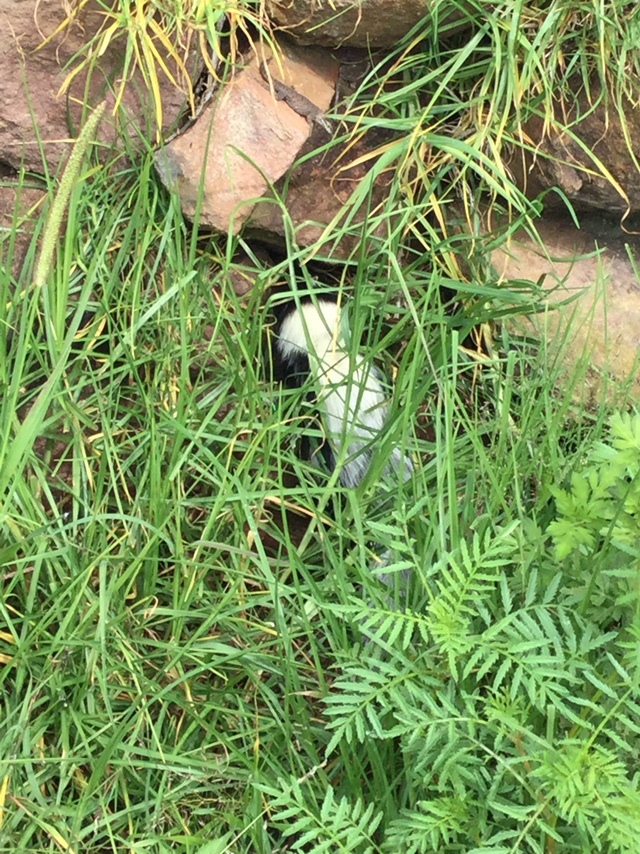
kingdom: Animalia
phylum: Chordata
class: Mammalia
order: Carnivora
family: Mephitidae
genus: Mephitis
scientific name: Mephitis macroura
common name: Hooded skunk
